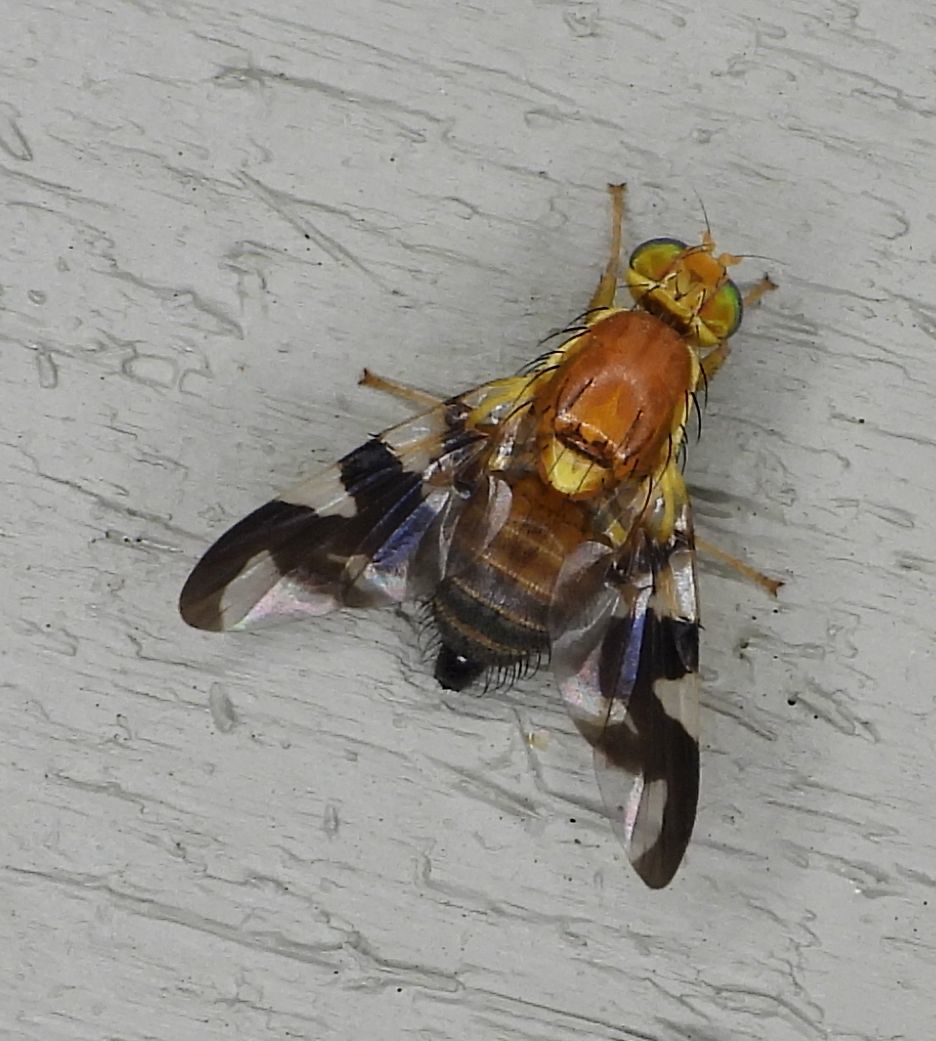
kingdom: Animalia
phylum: Arthropoda
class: Insecta
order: Diptera
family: Tephritidae
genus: Rhagoletis
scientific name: Rhagoletis suavis
